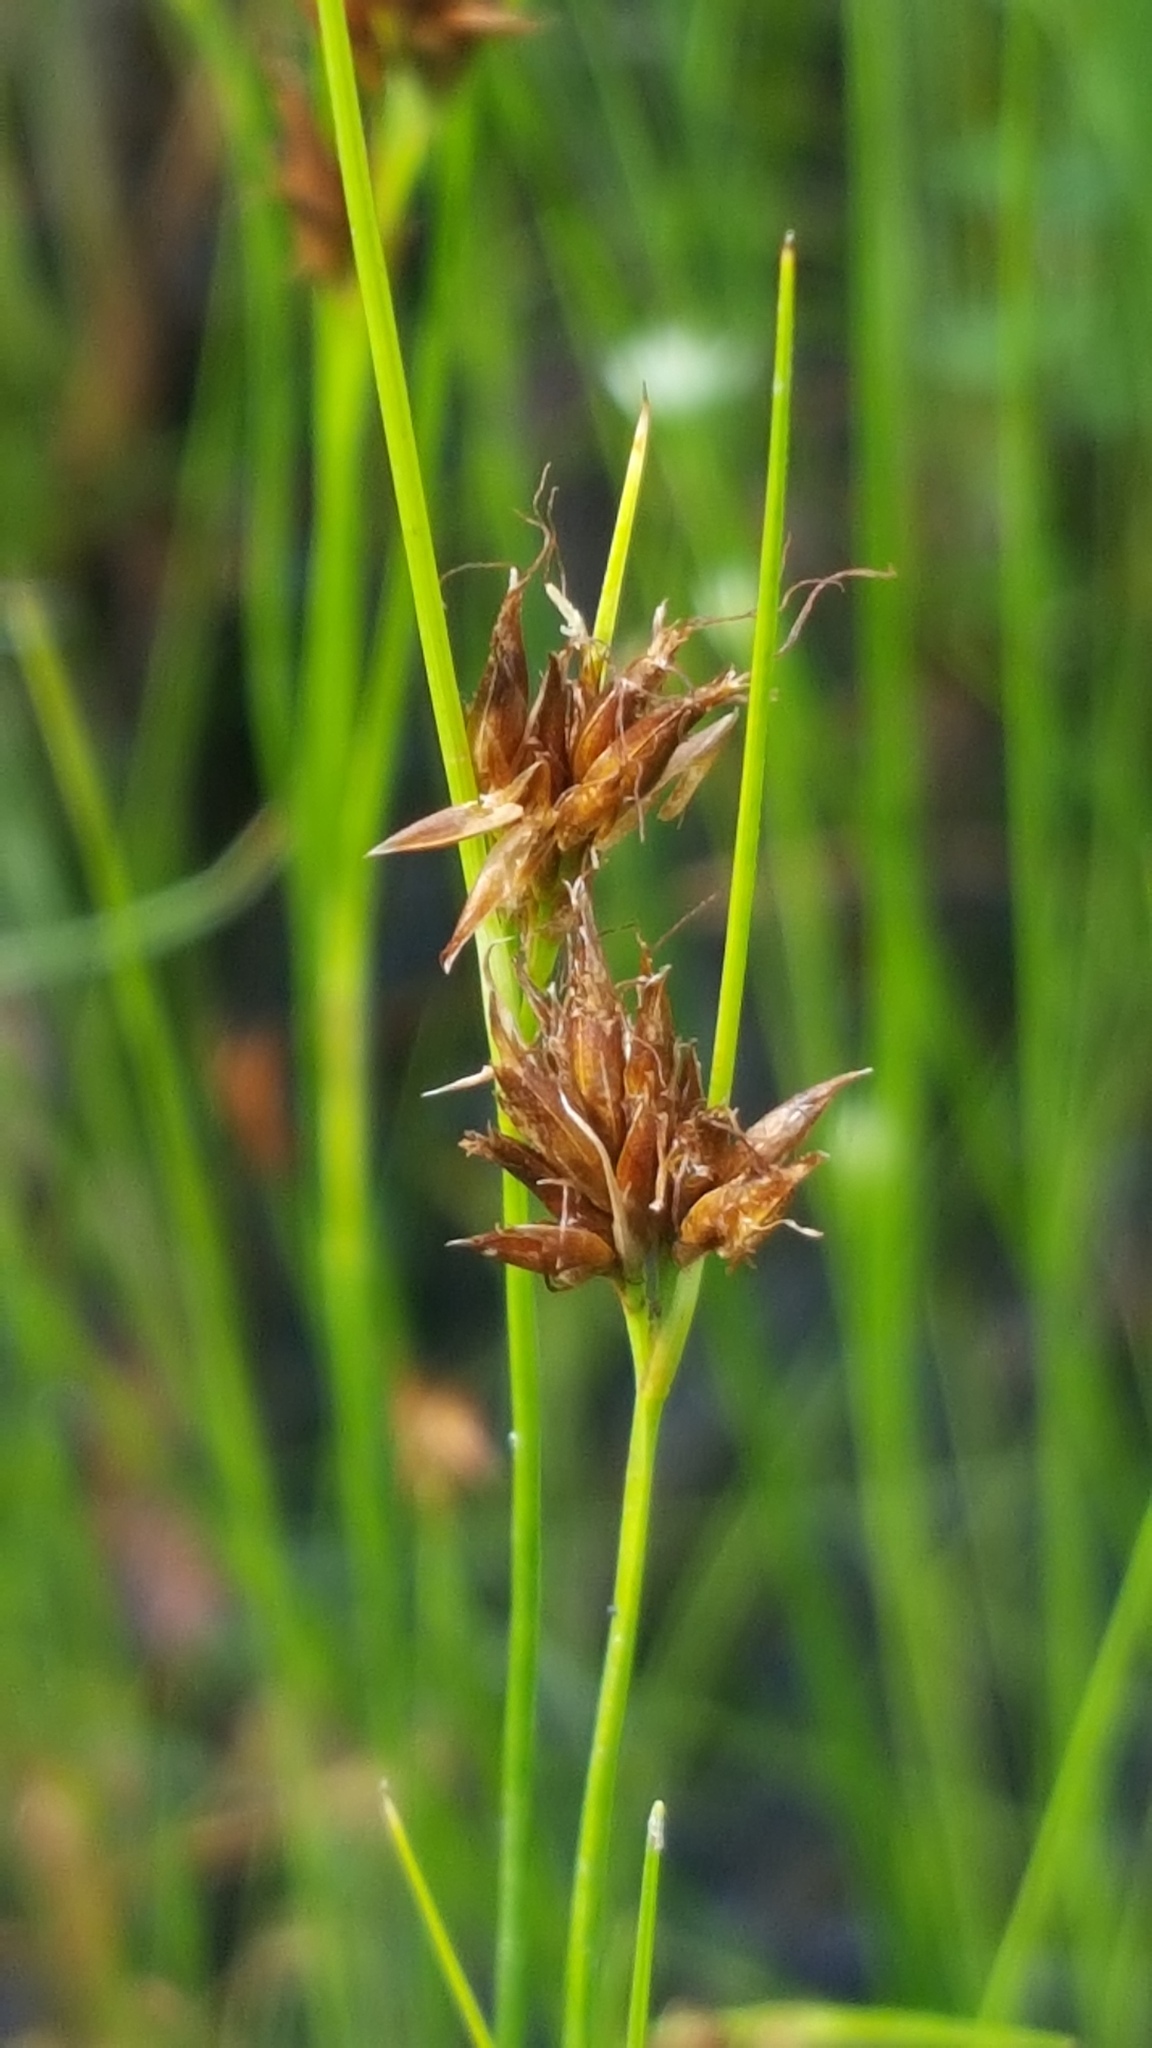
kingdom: Plantae
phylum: Tracheophyta
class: Liliopsida
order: Poales
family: Cyperaceae
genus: Rhynchospora
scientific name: Rhynchospora fusca
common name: Brown beak-sedge
